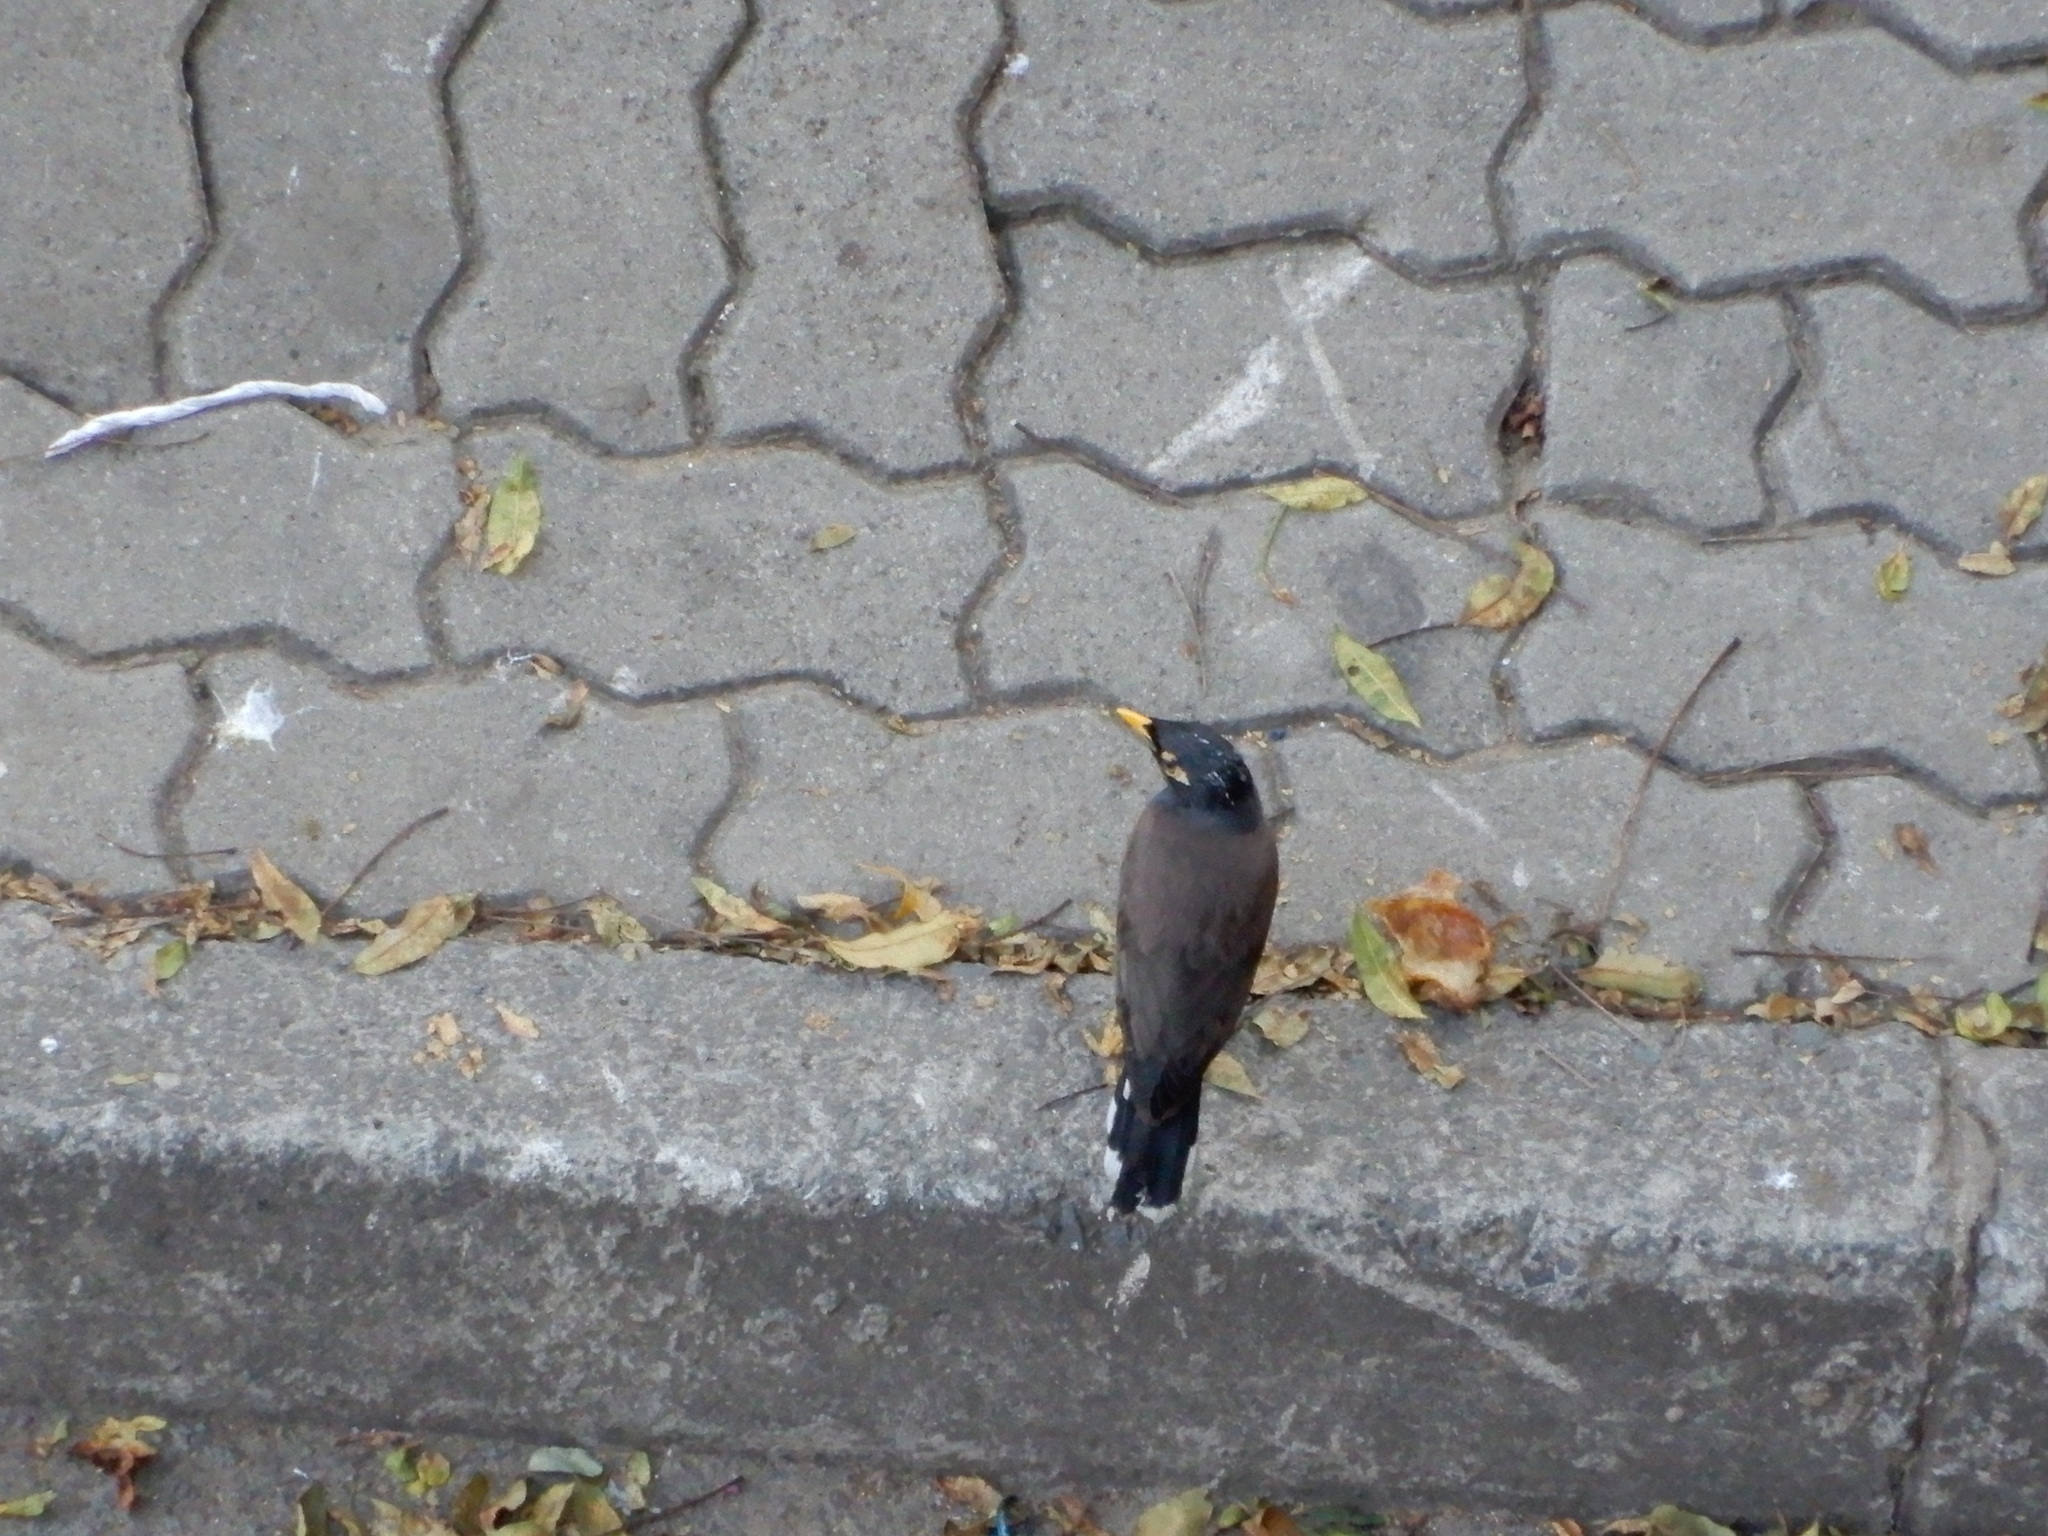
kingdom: Animalia
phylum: Chordata
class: Aves
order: Passeriformes
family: Sturnidae
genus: Acridotheres
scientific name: Acridotheres tristis
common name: Common myna
